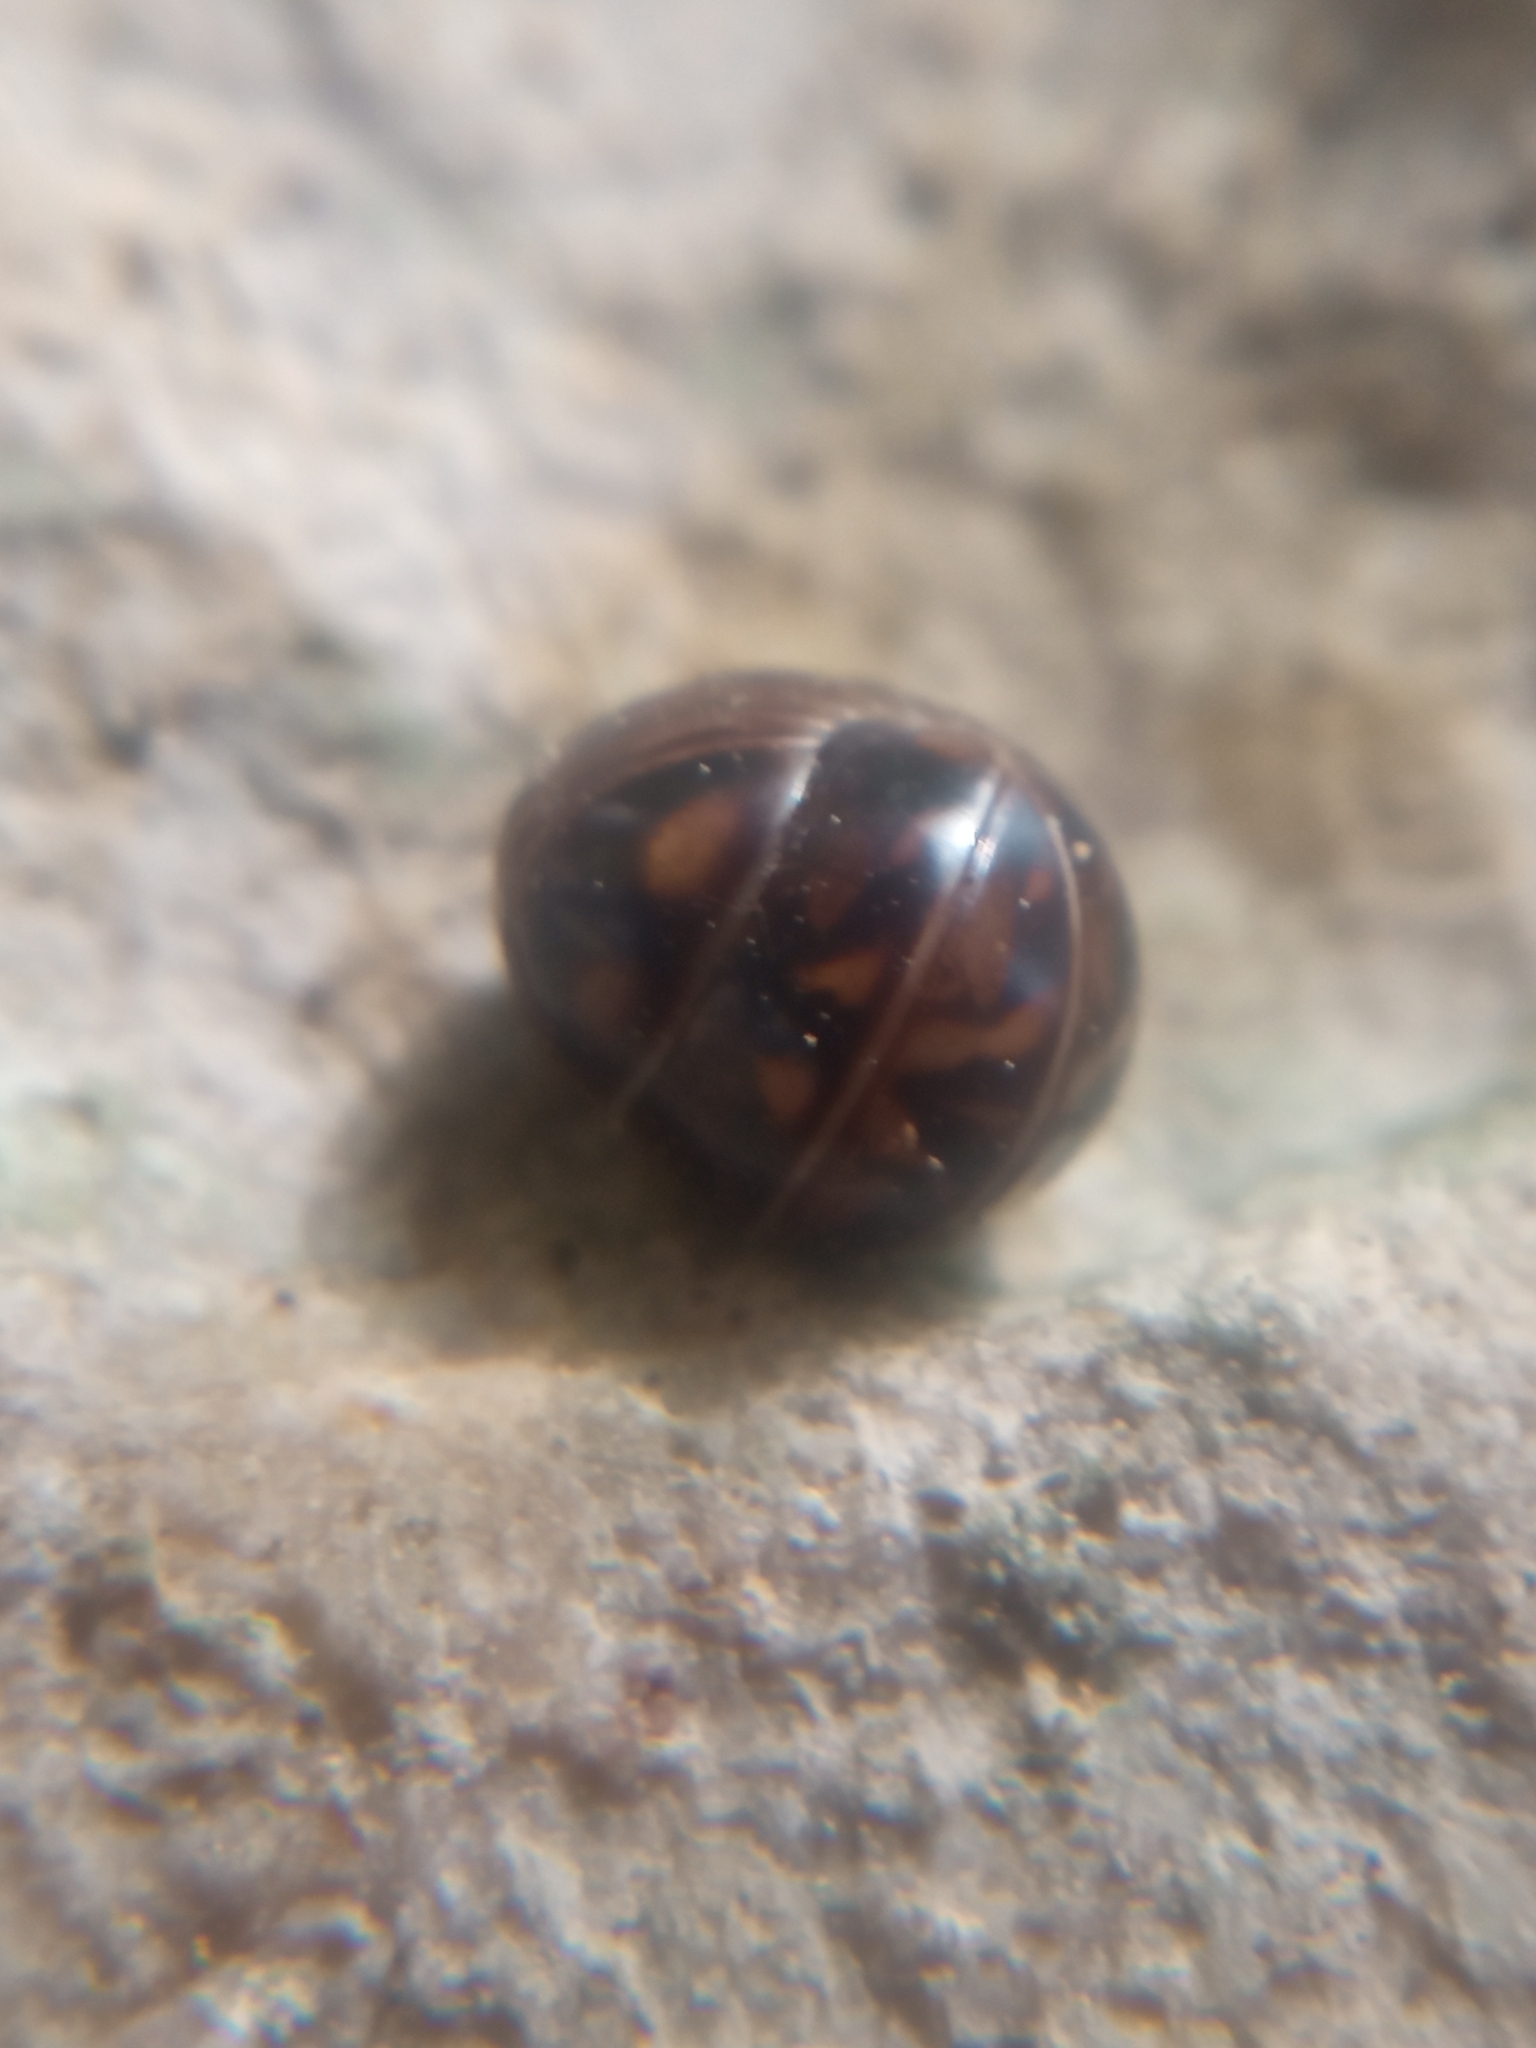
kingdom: Animalia
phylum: Arthropoda
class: Diplopoda
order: Glomerida
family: Glomeridae
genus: Glomeris
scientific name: Glomeris intermedia
